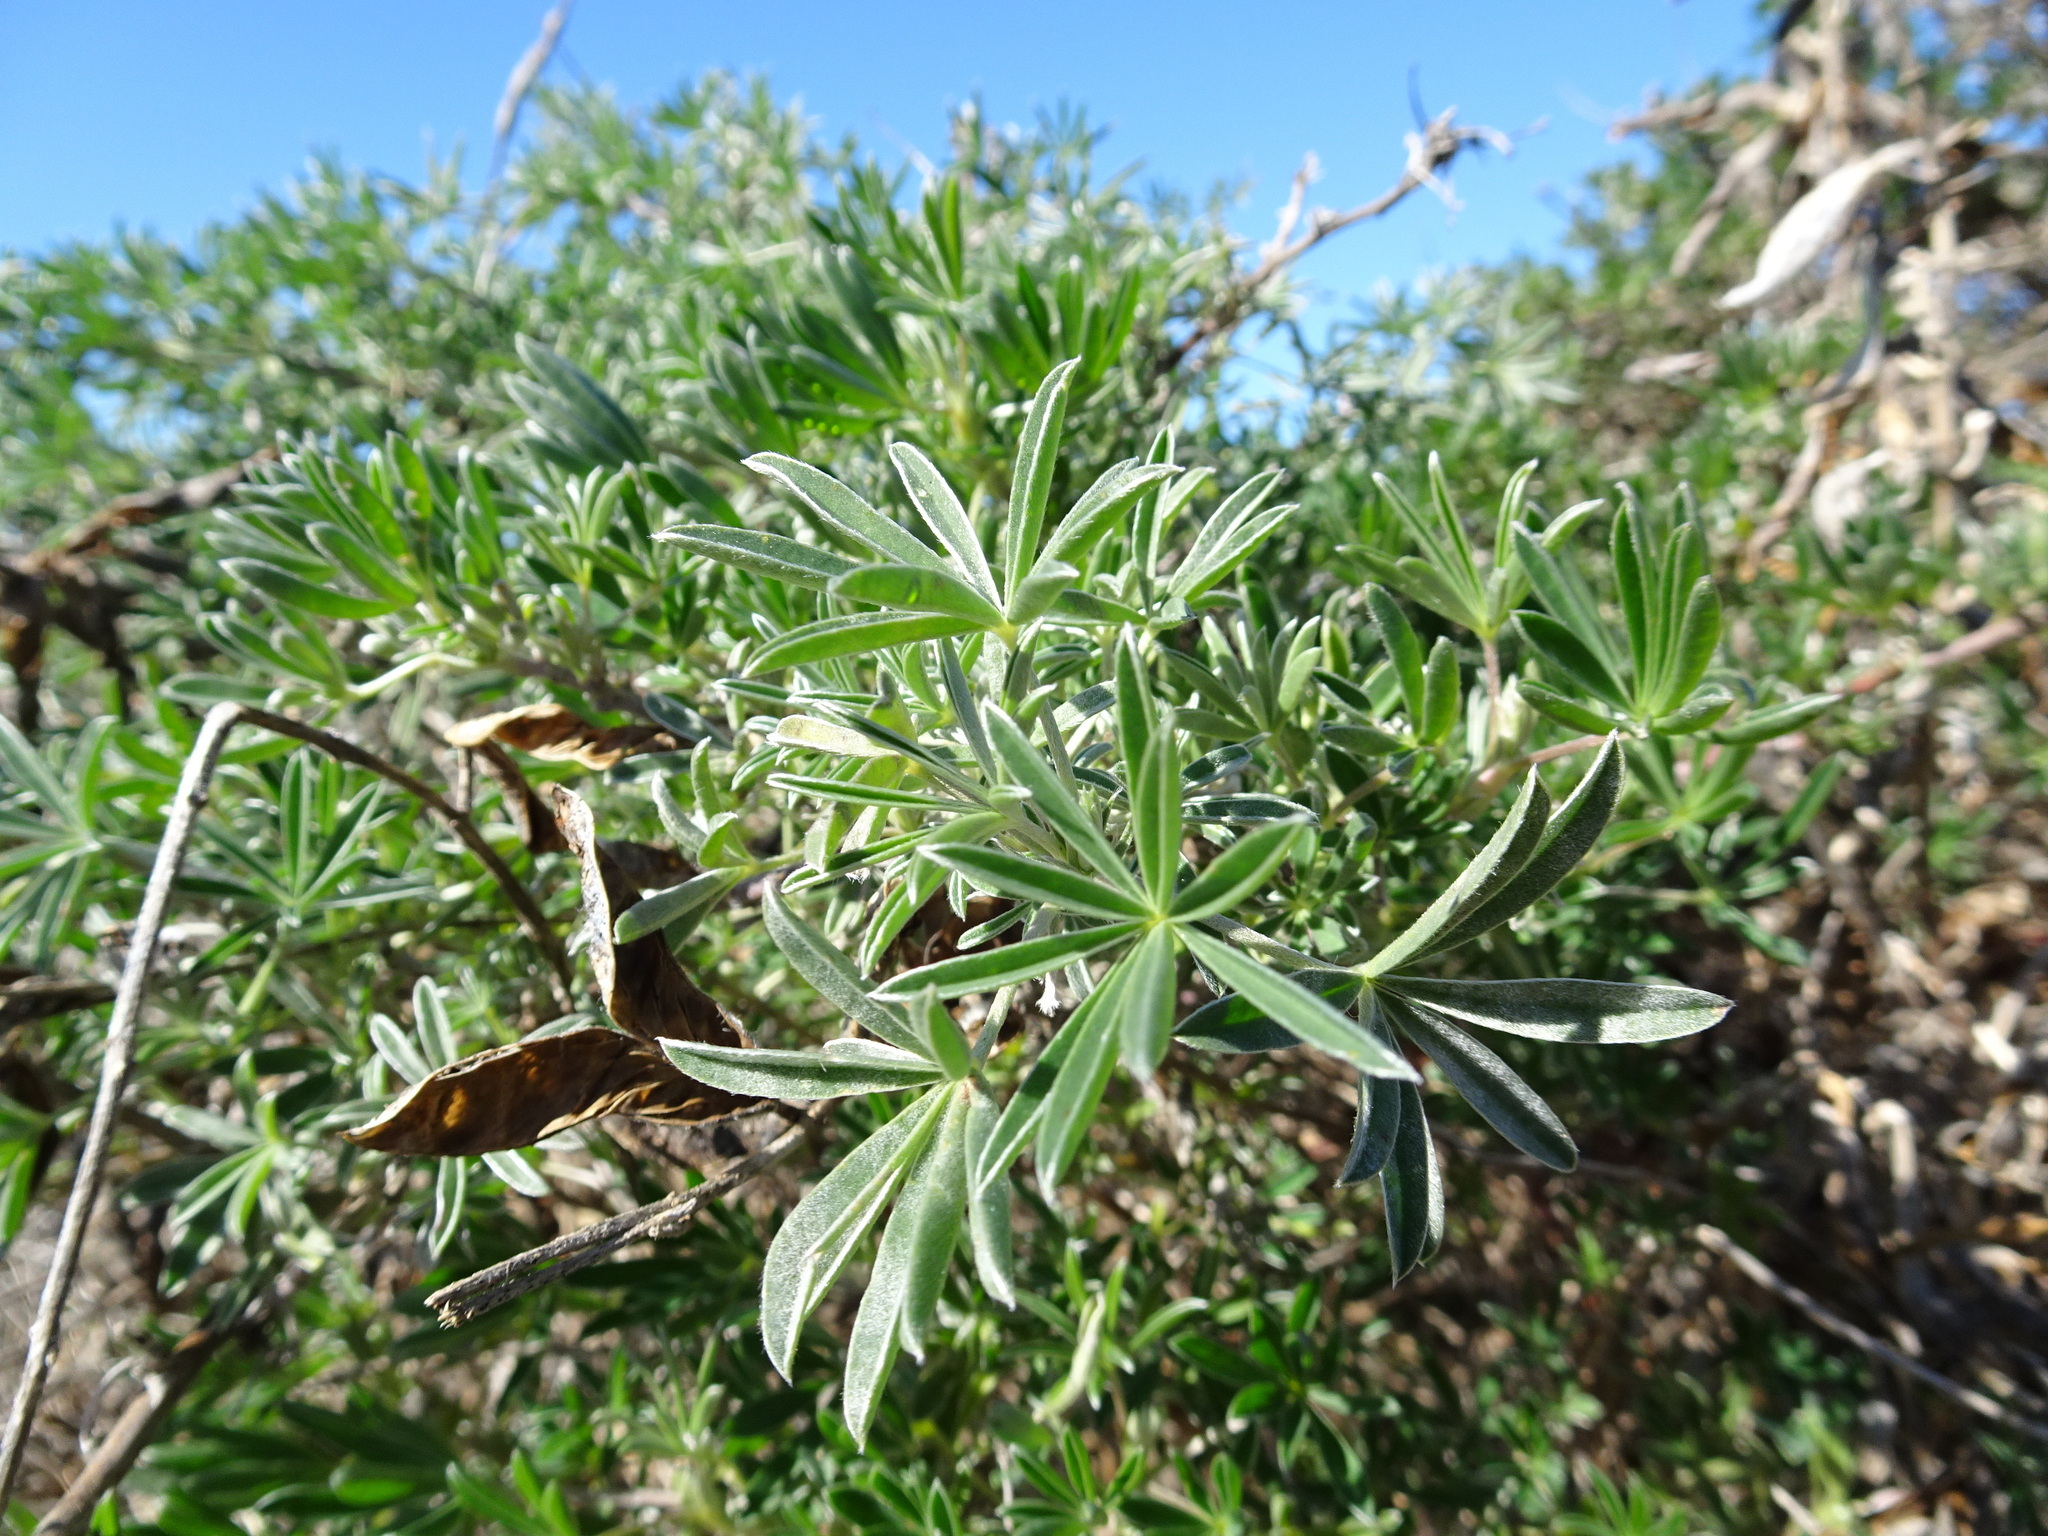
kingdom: Plantae
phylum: Tracheophyta
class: Magnoliopsida
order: Fabales
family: Fabaceae
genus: Lupinus
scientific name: Lupinus arboreus
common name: Yellow bush lupine
